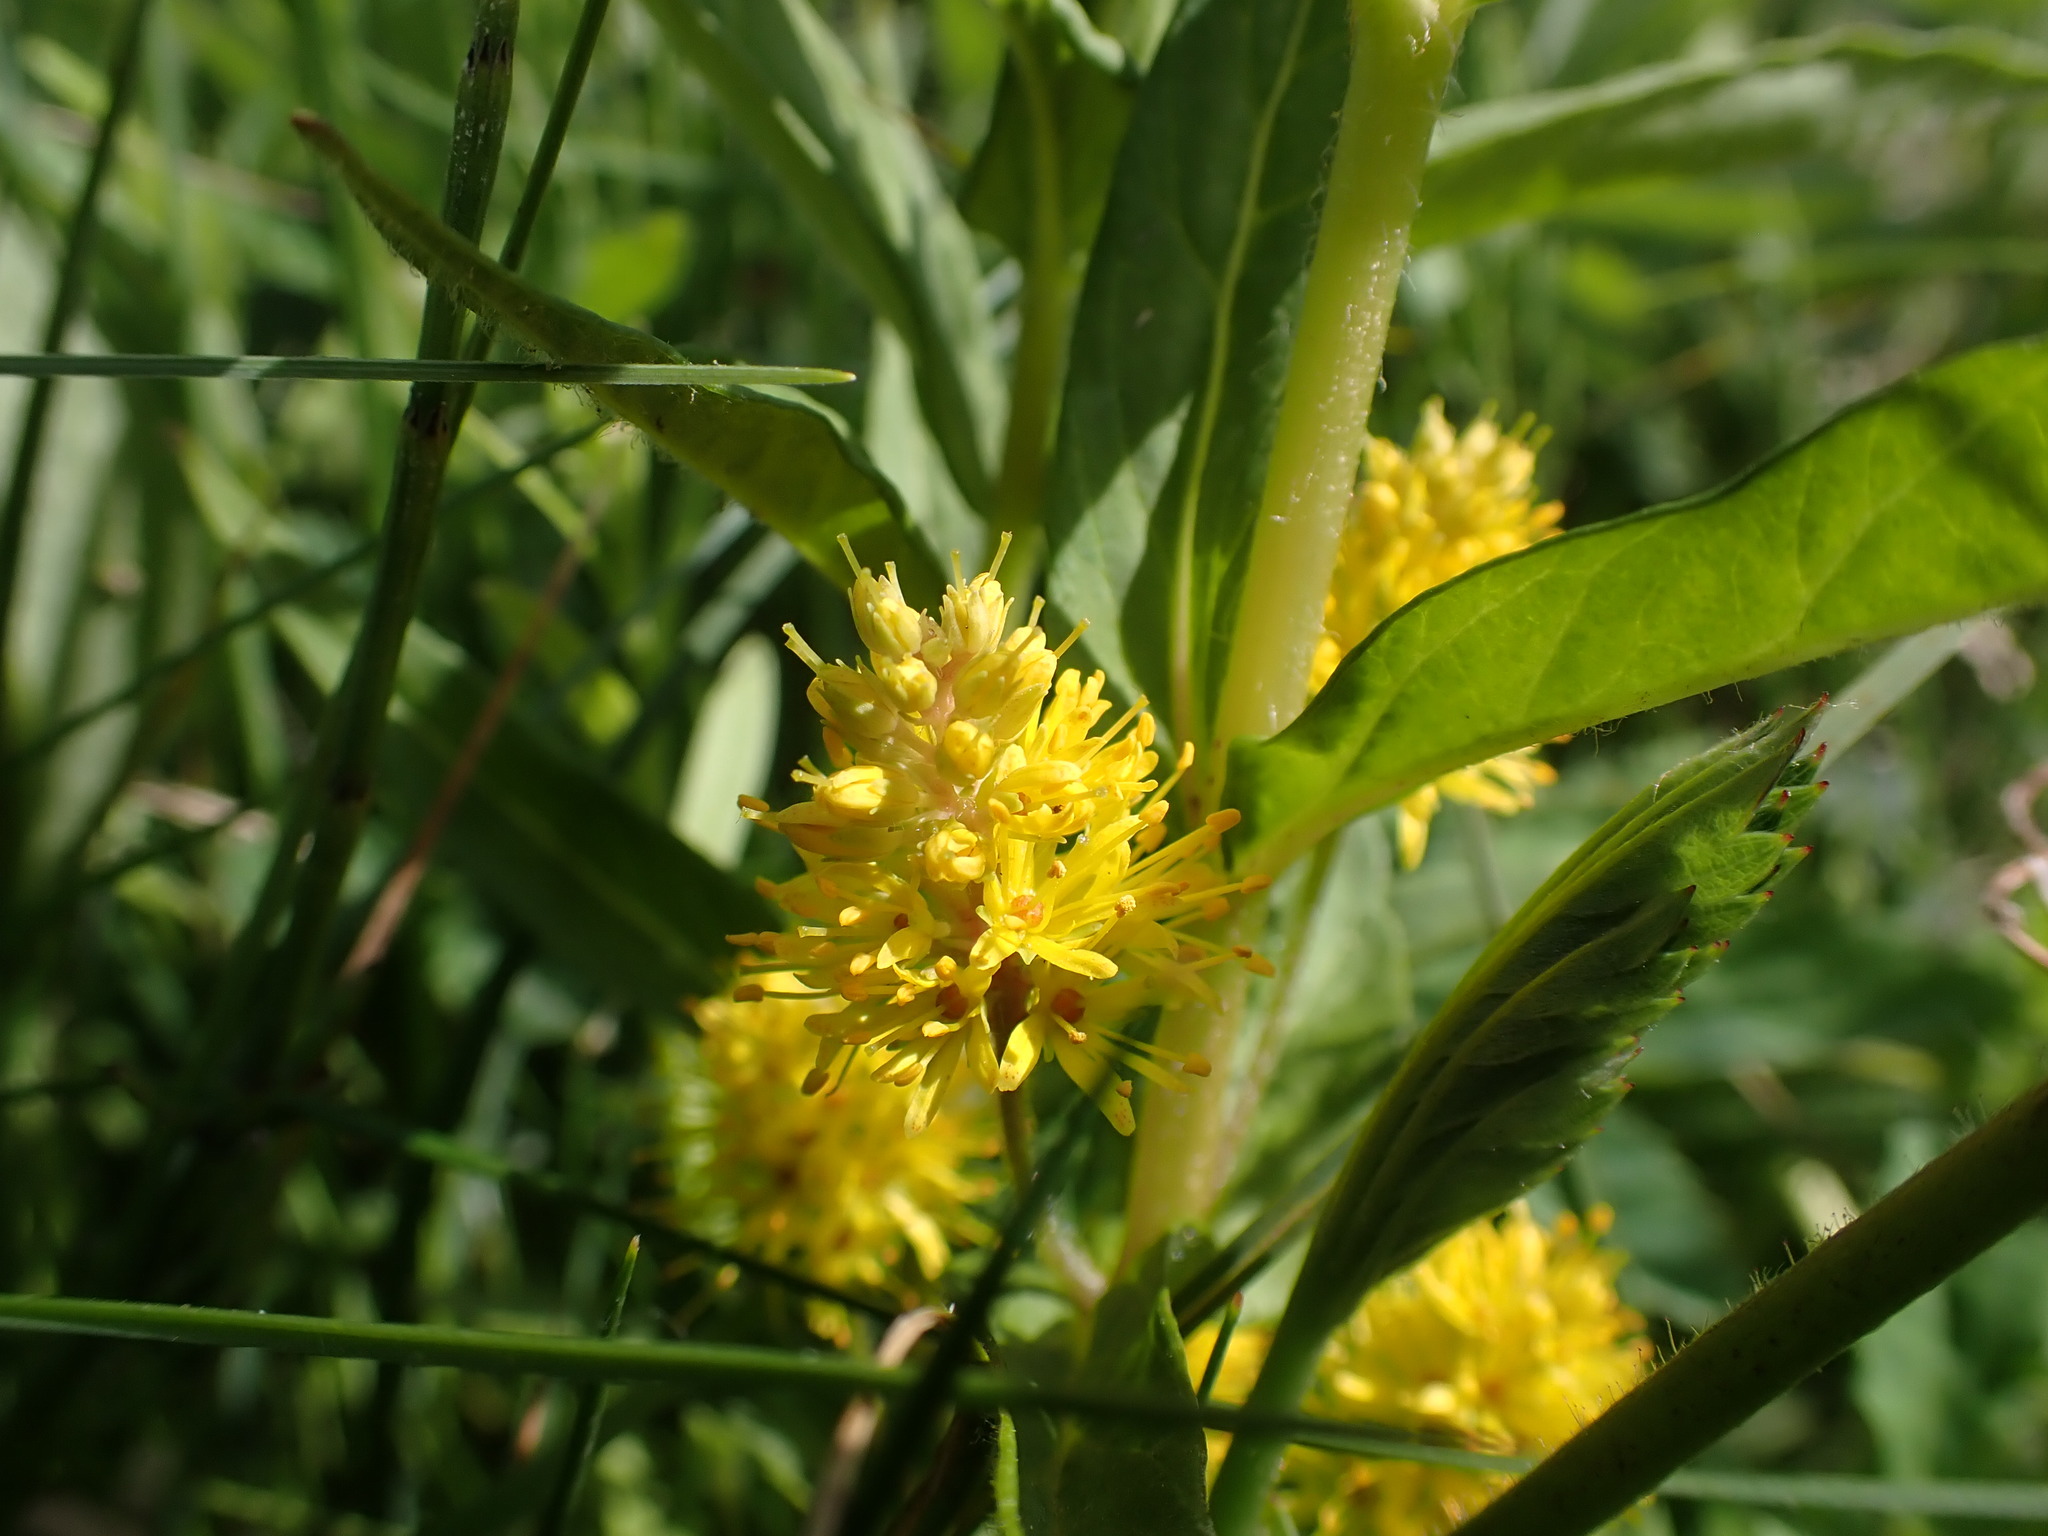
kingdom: Plantae
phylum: Tracheophyta
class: Magnoliopsida
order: Ericales
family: Primulaceae
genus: Lysimachia
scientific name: Lysimachia thyrsiflora
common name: Tufted loosestrife
